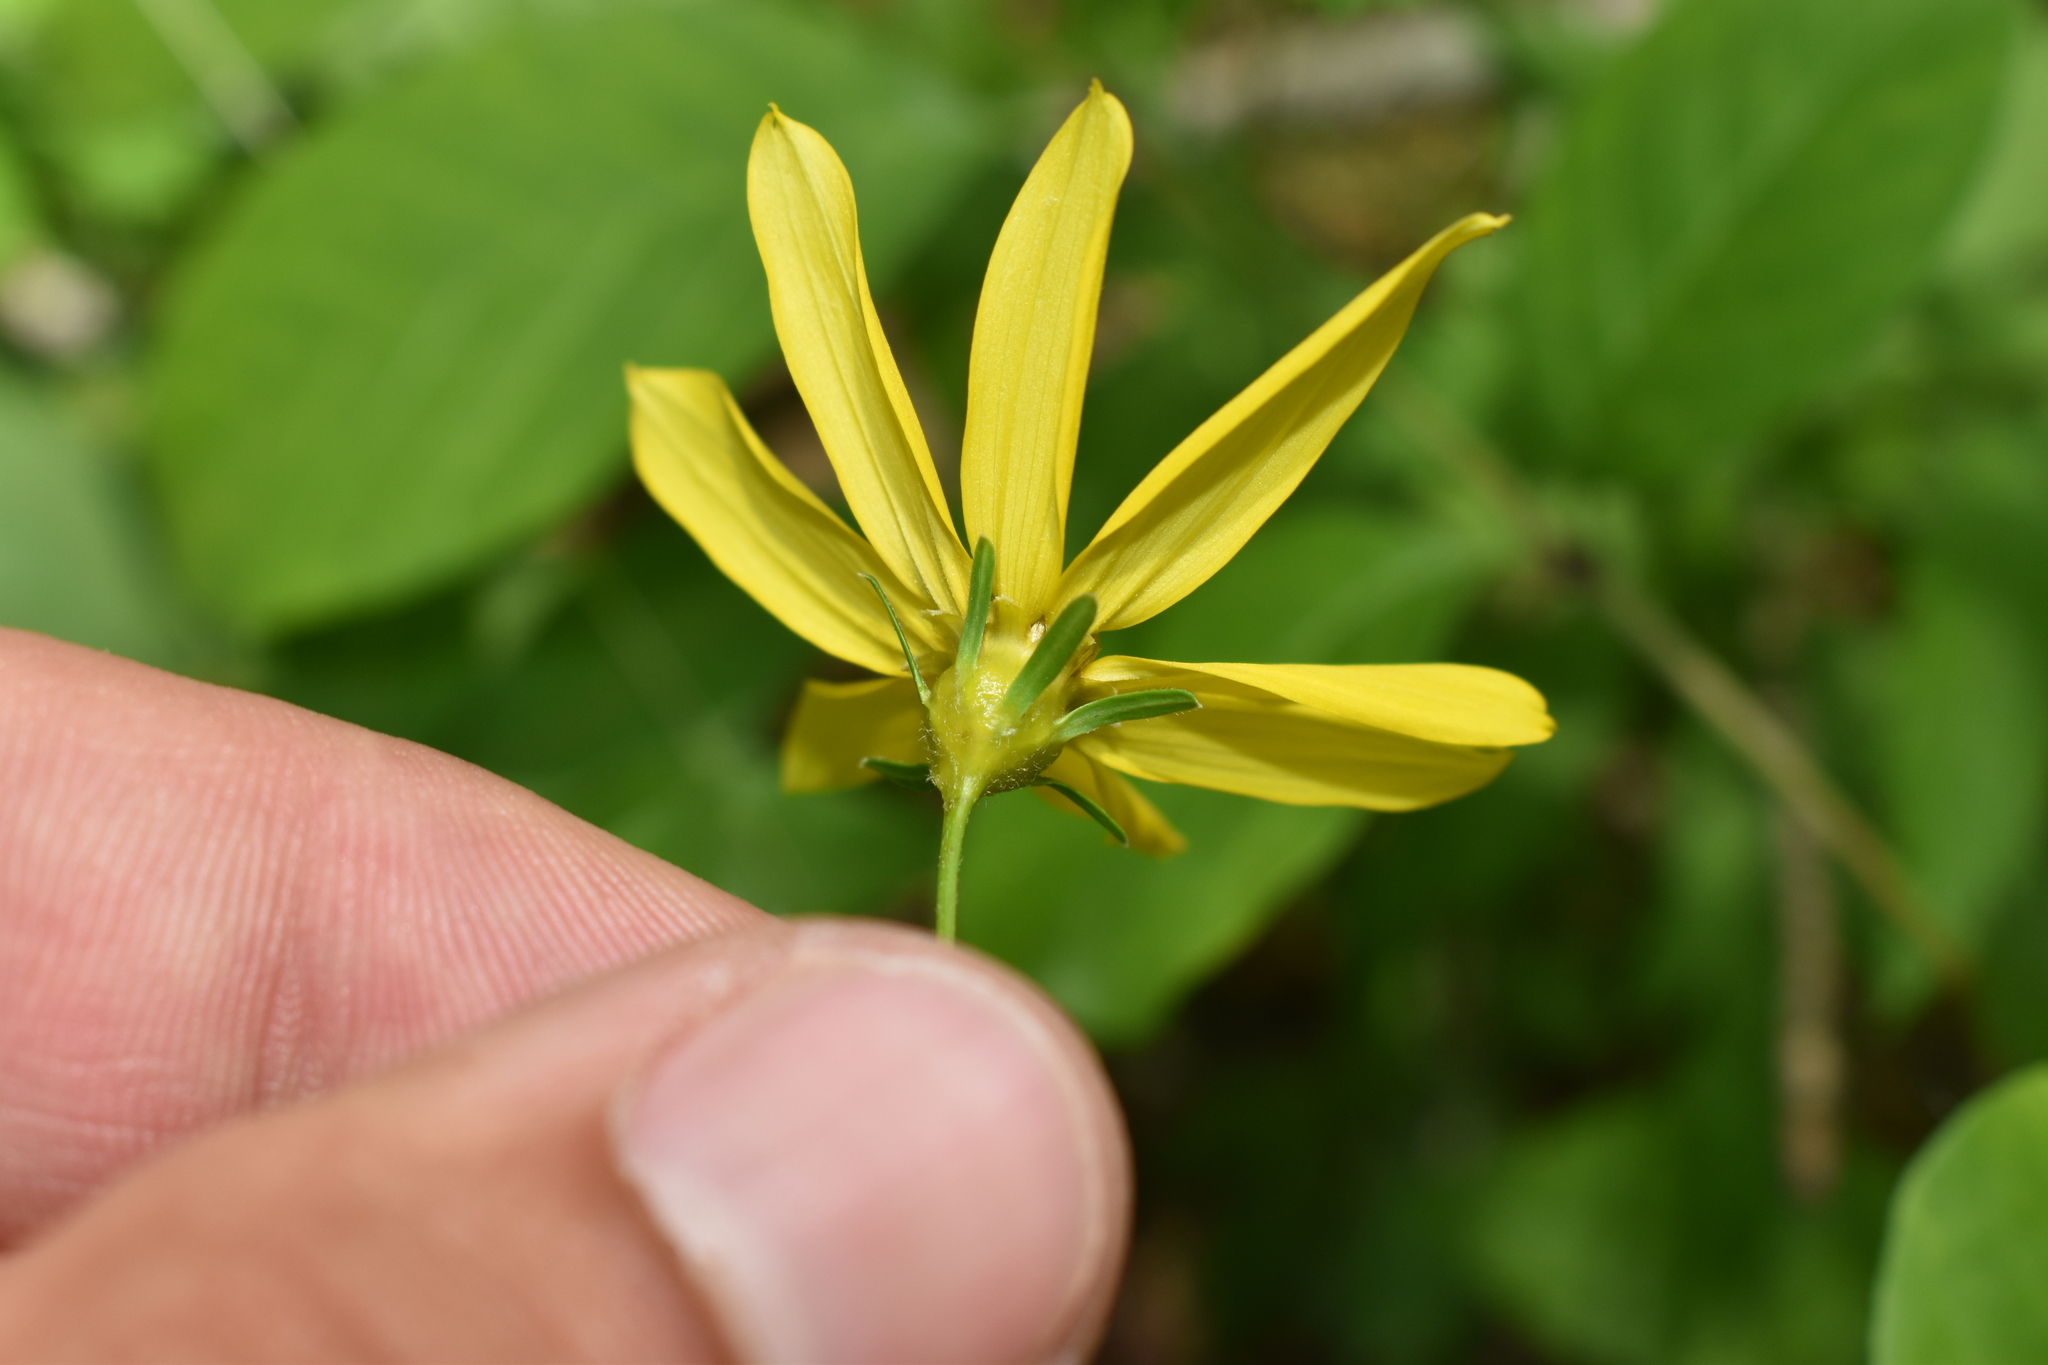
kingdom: Plantae
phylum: Tracheophyta
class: Magnoliopsida
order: Asterales
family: Asteraceae
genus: Coreopsis
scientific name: Coreopsis major
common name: Forest tickseed
